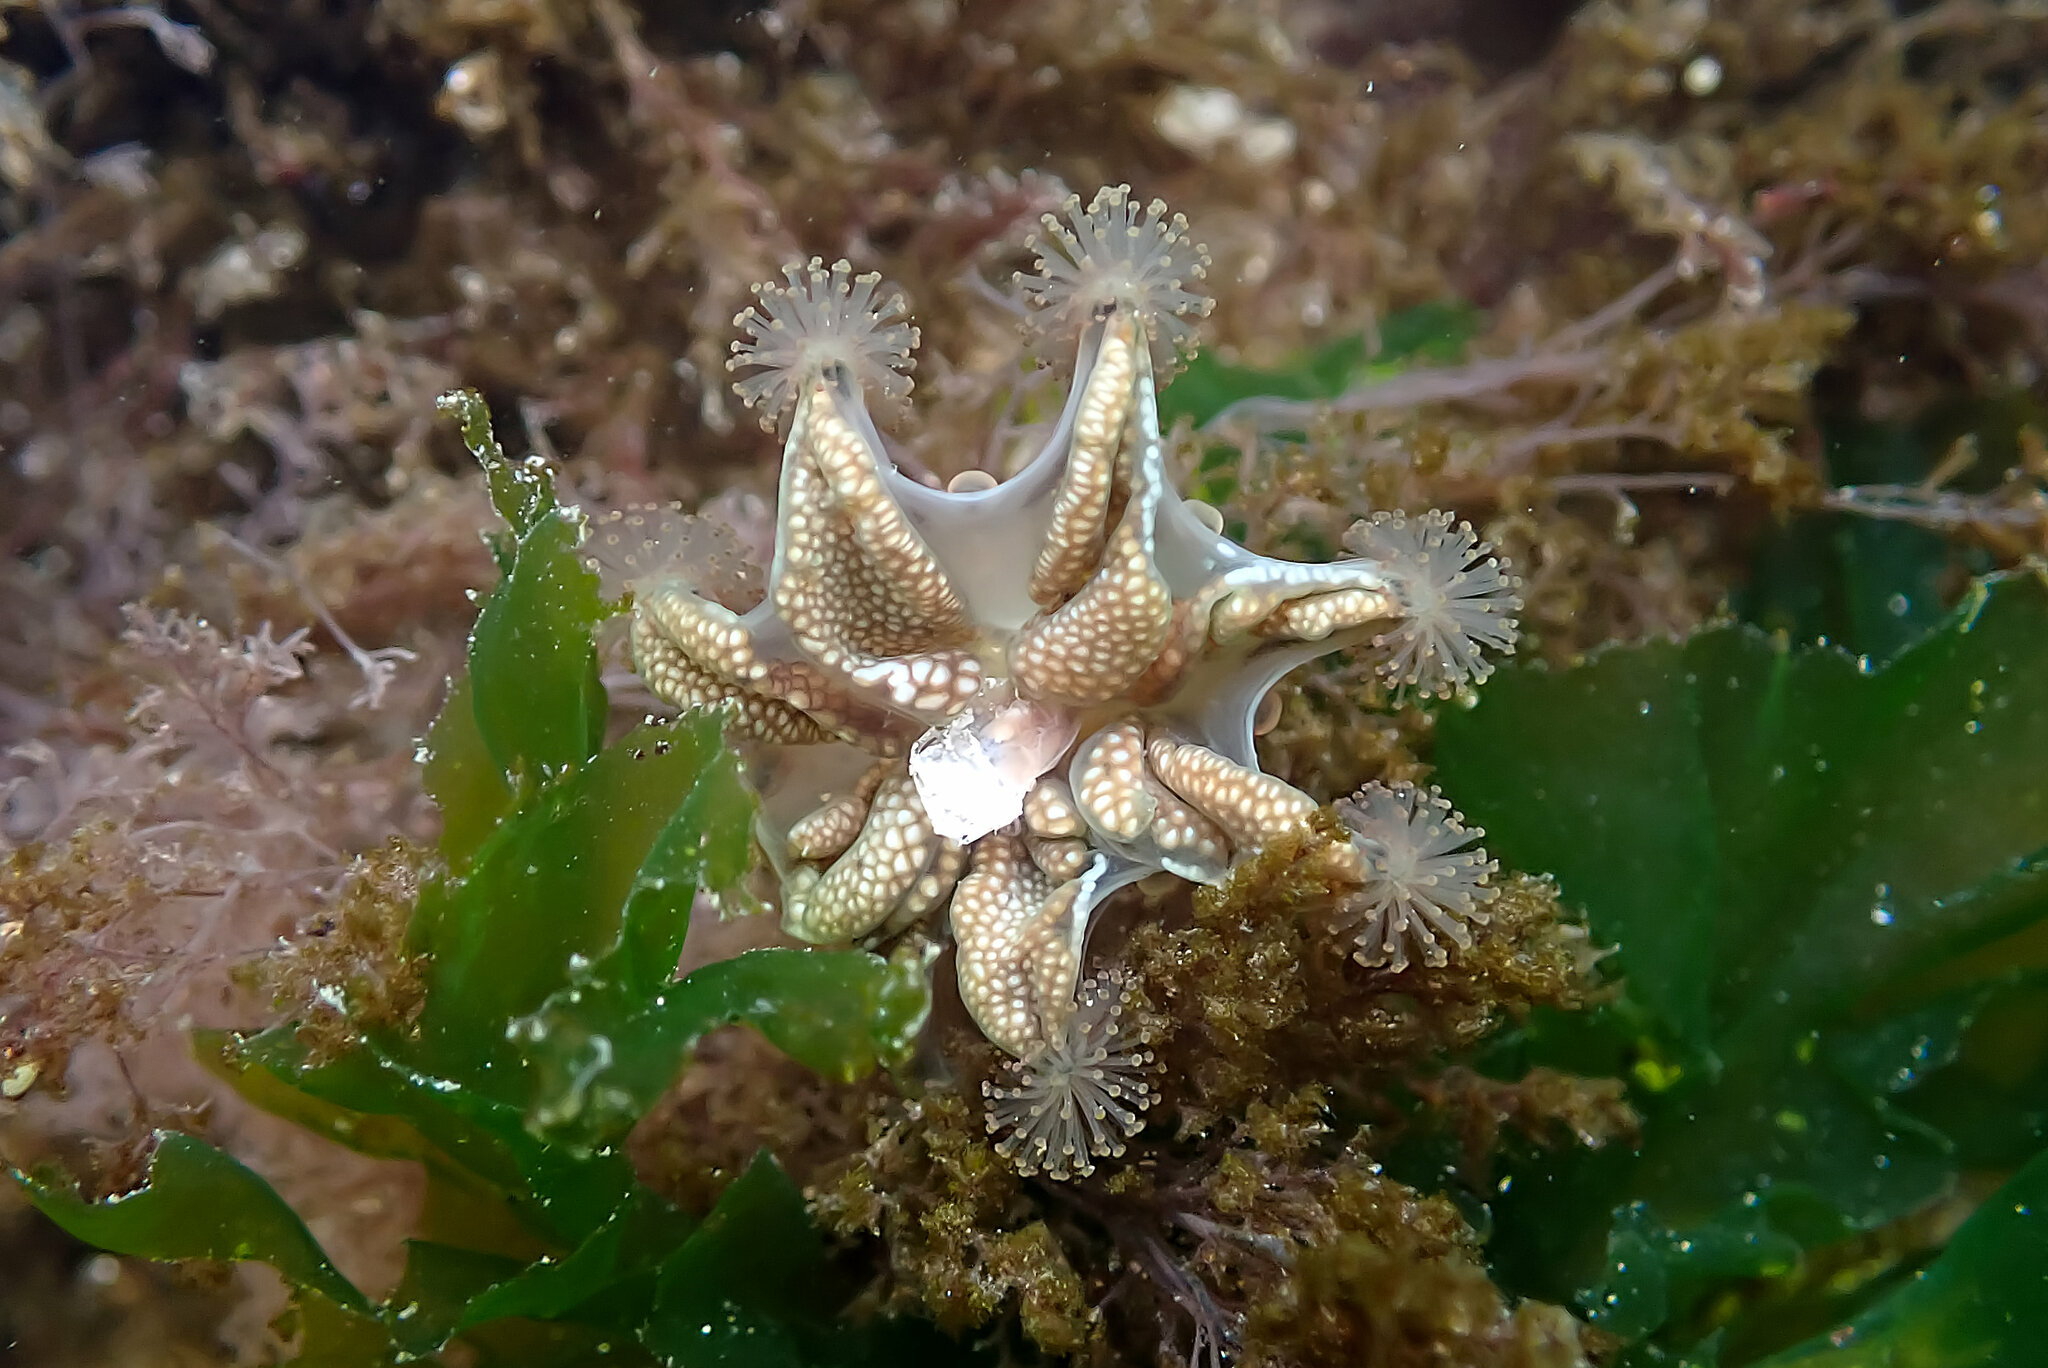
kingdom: Animalia
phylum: Cnidaria
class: Staurozoa
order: Stauromedusae
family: Haliclystidae
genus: Haliclystus
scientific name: Haliclystus sanjuanensis
